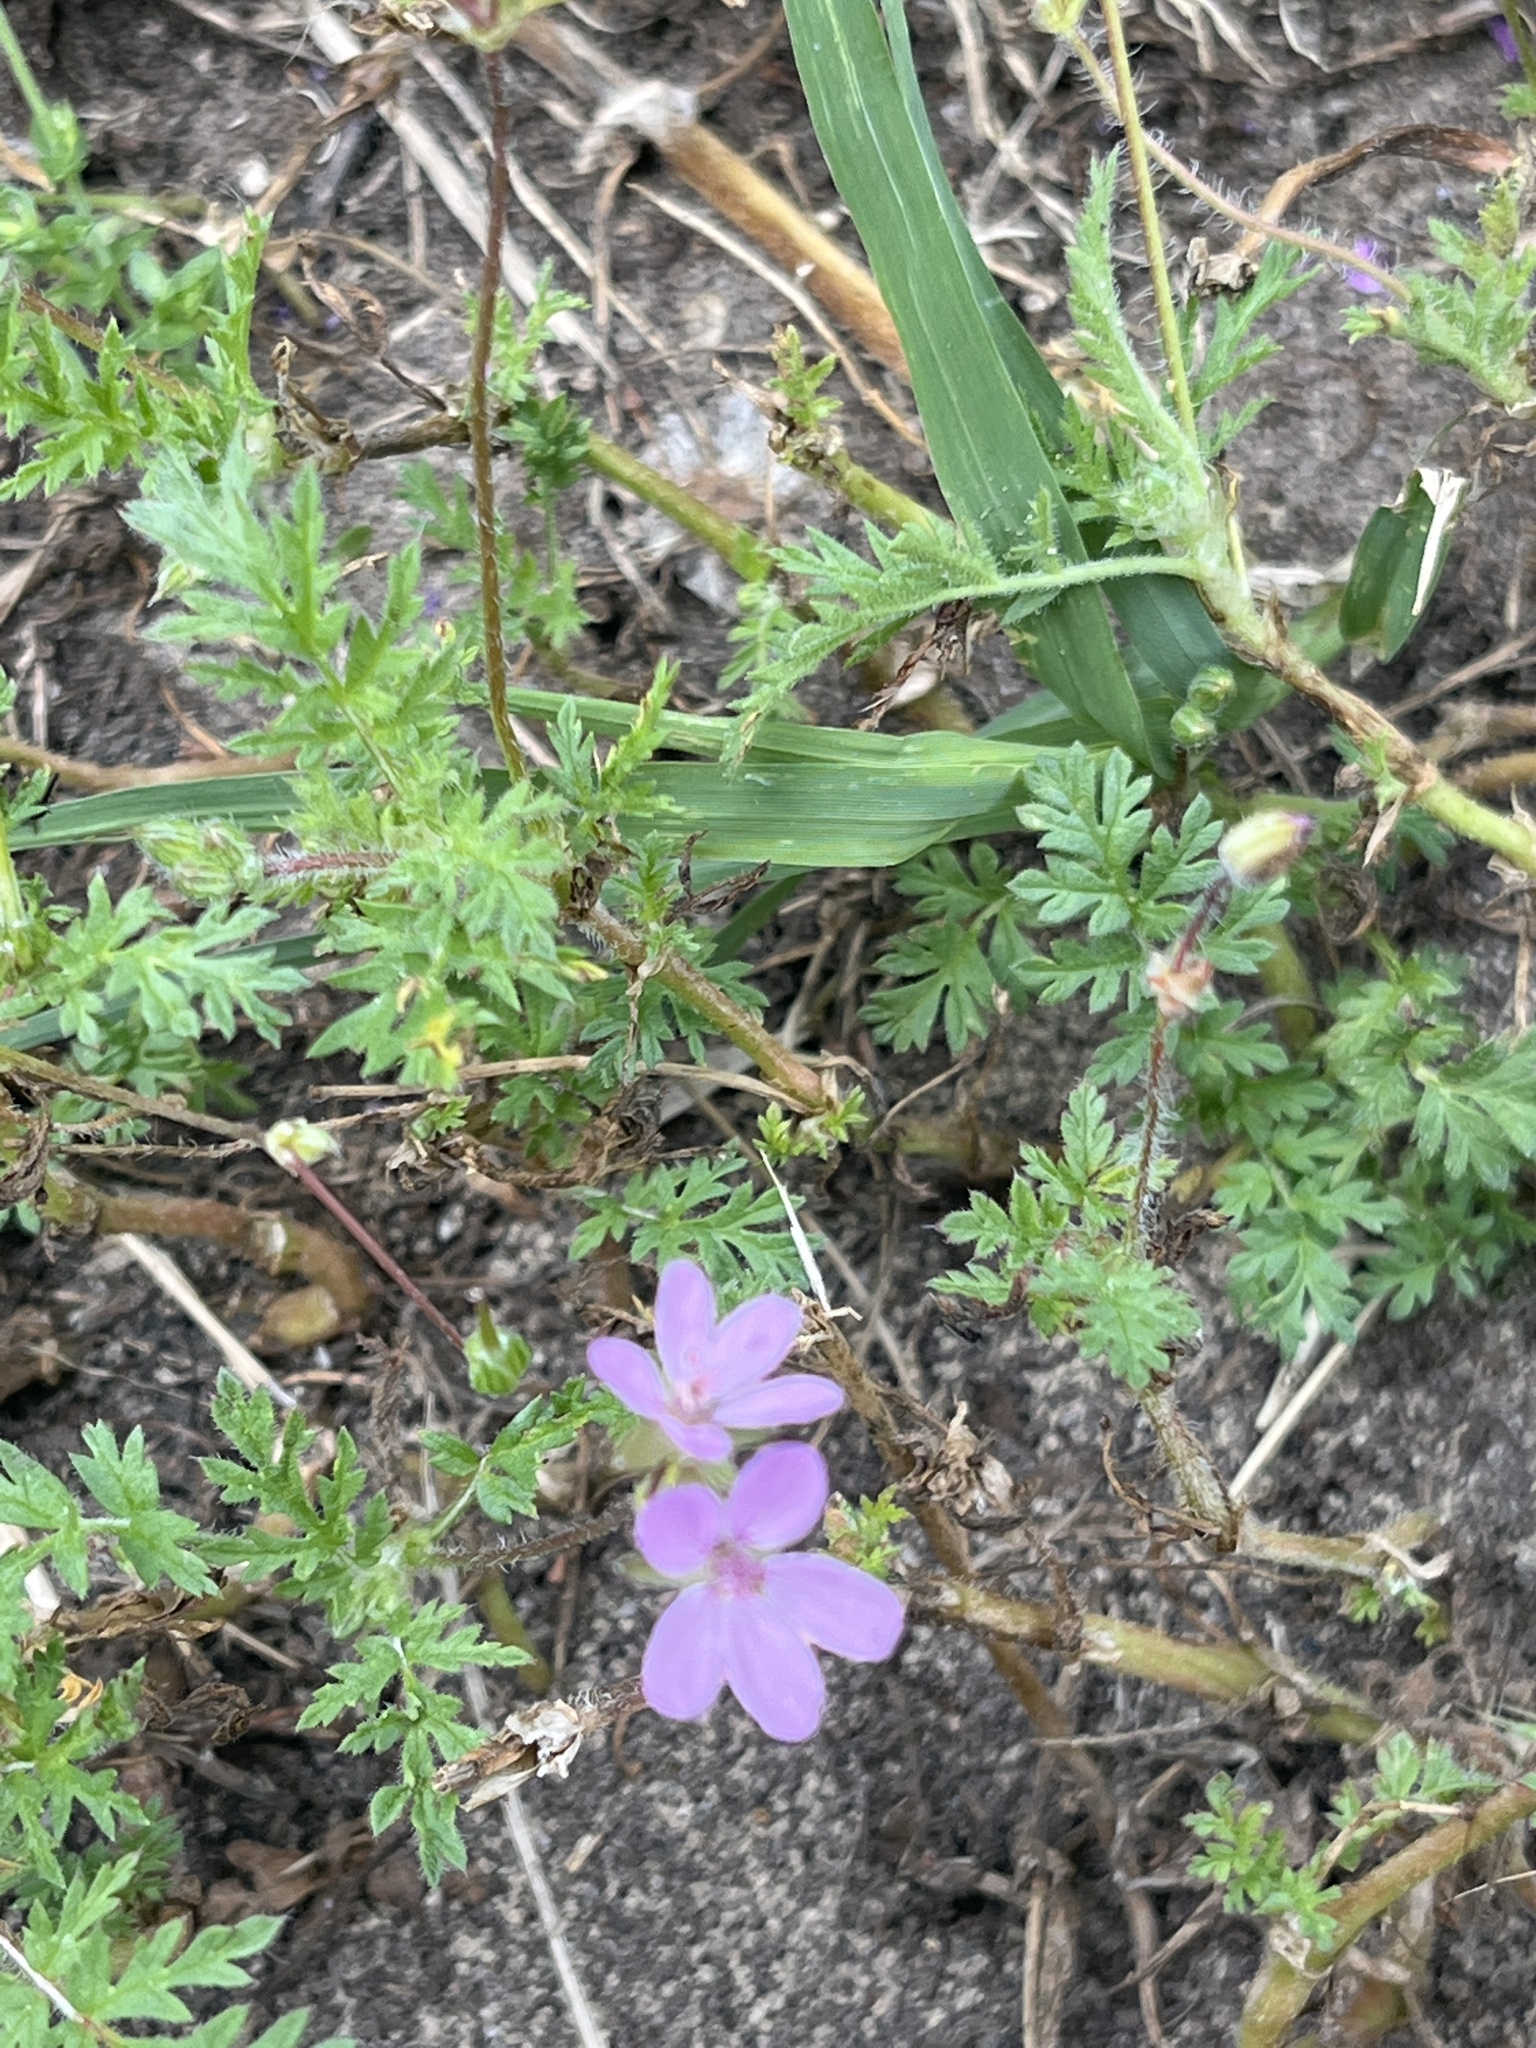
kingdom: Plantae
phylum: Tracheophyta
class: Magnoliopsida
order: Geraniales
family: Geraniaceae
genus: Erodium
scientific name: Erodium cicutarium
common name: Common stork's-bill
